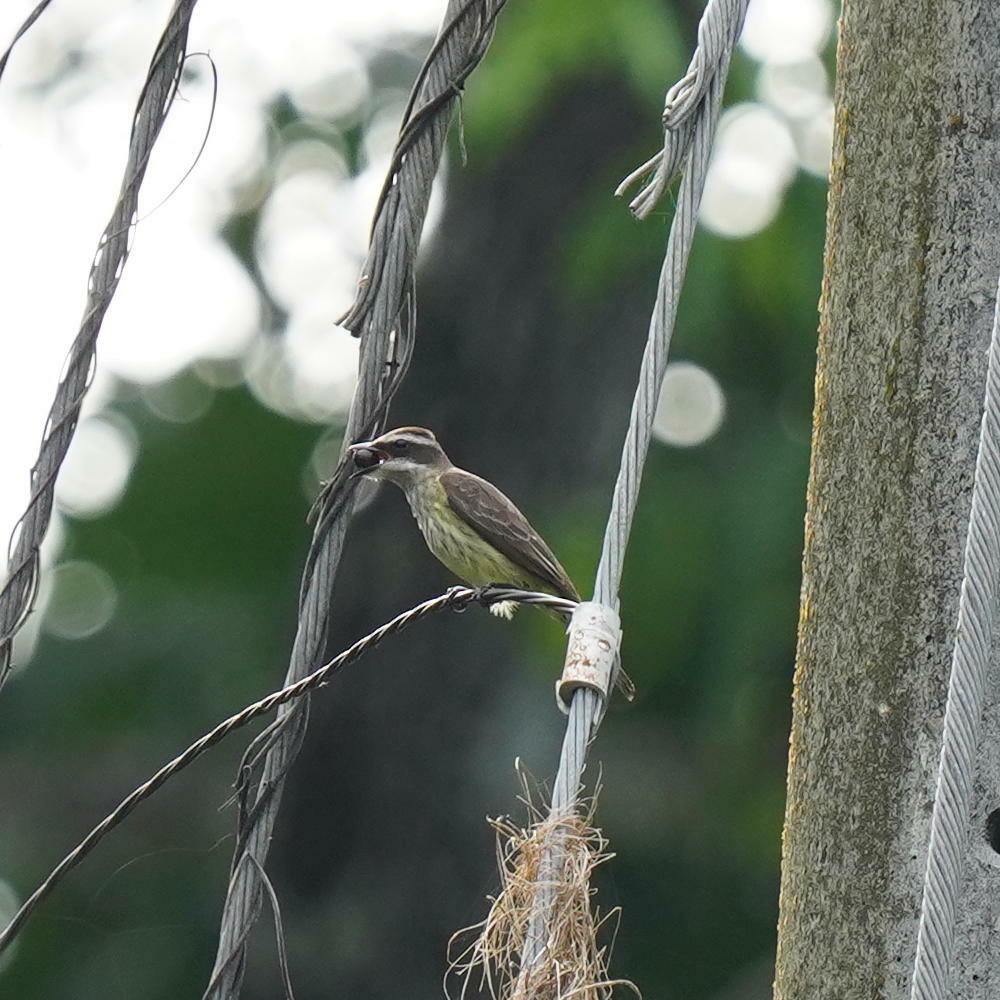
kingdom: Animalia
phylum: Chordata
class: Aves
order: Passeriformes
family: Tyrannidae
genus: Legatus
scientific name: Legatus leucophaius
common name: Piratic flycatcher
